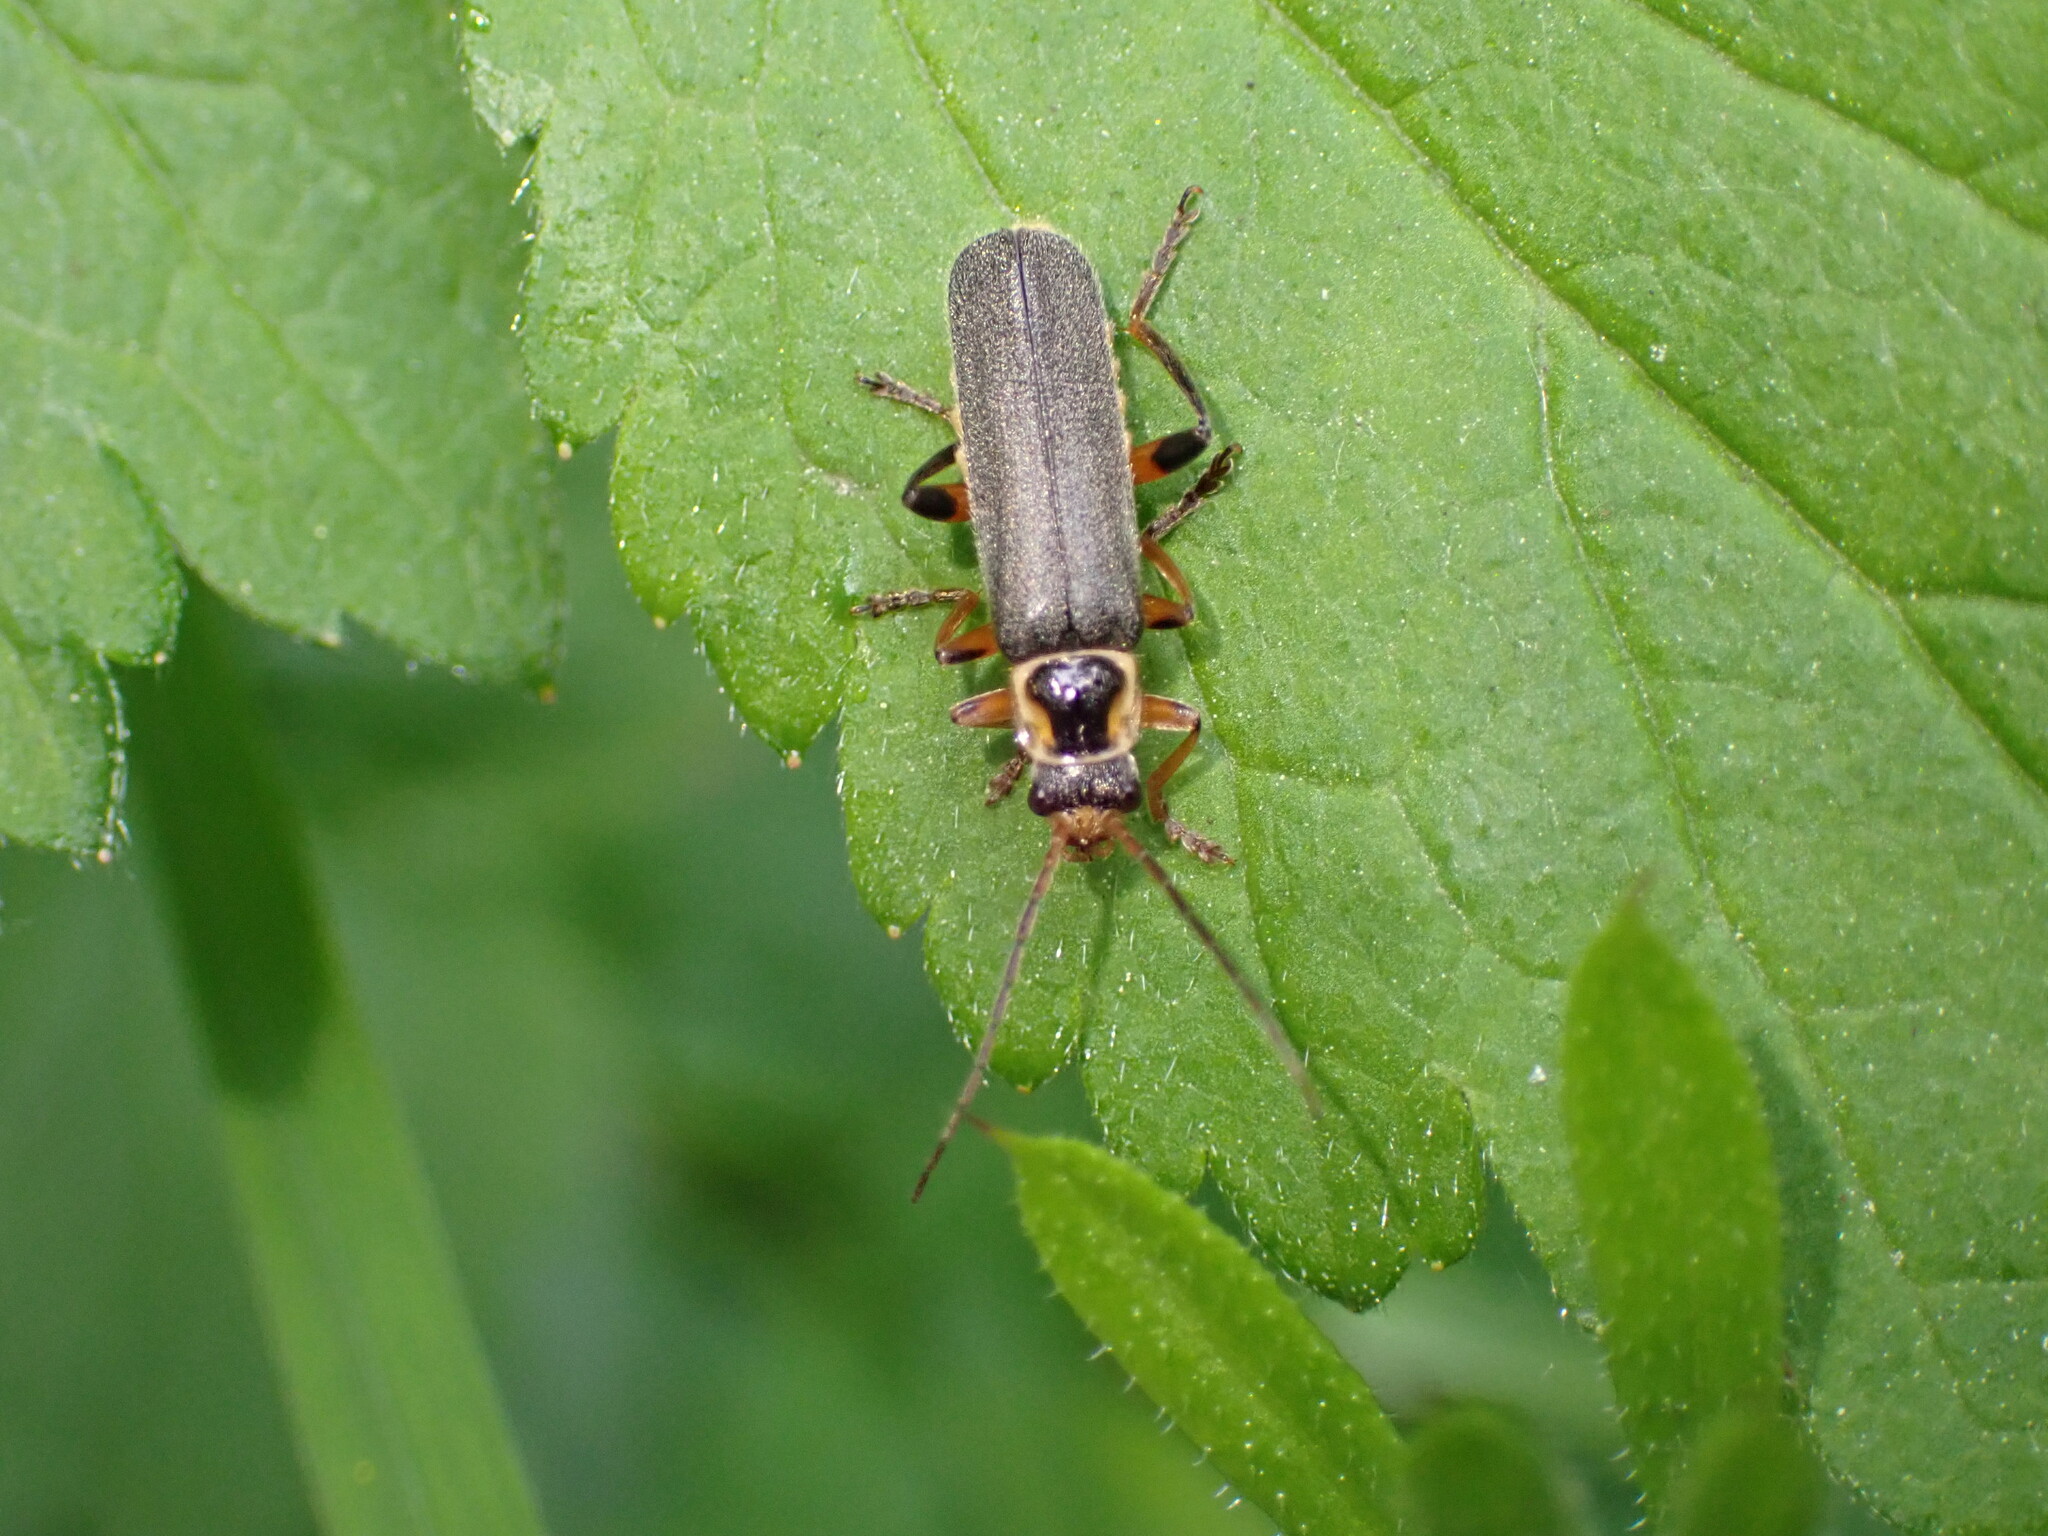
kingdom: Animalia
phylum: Arthropoda
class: Insecta
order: Coleoptera
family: Cantharidae
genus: Cantharis
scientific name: Cantharis nigricans
